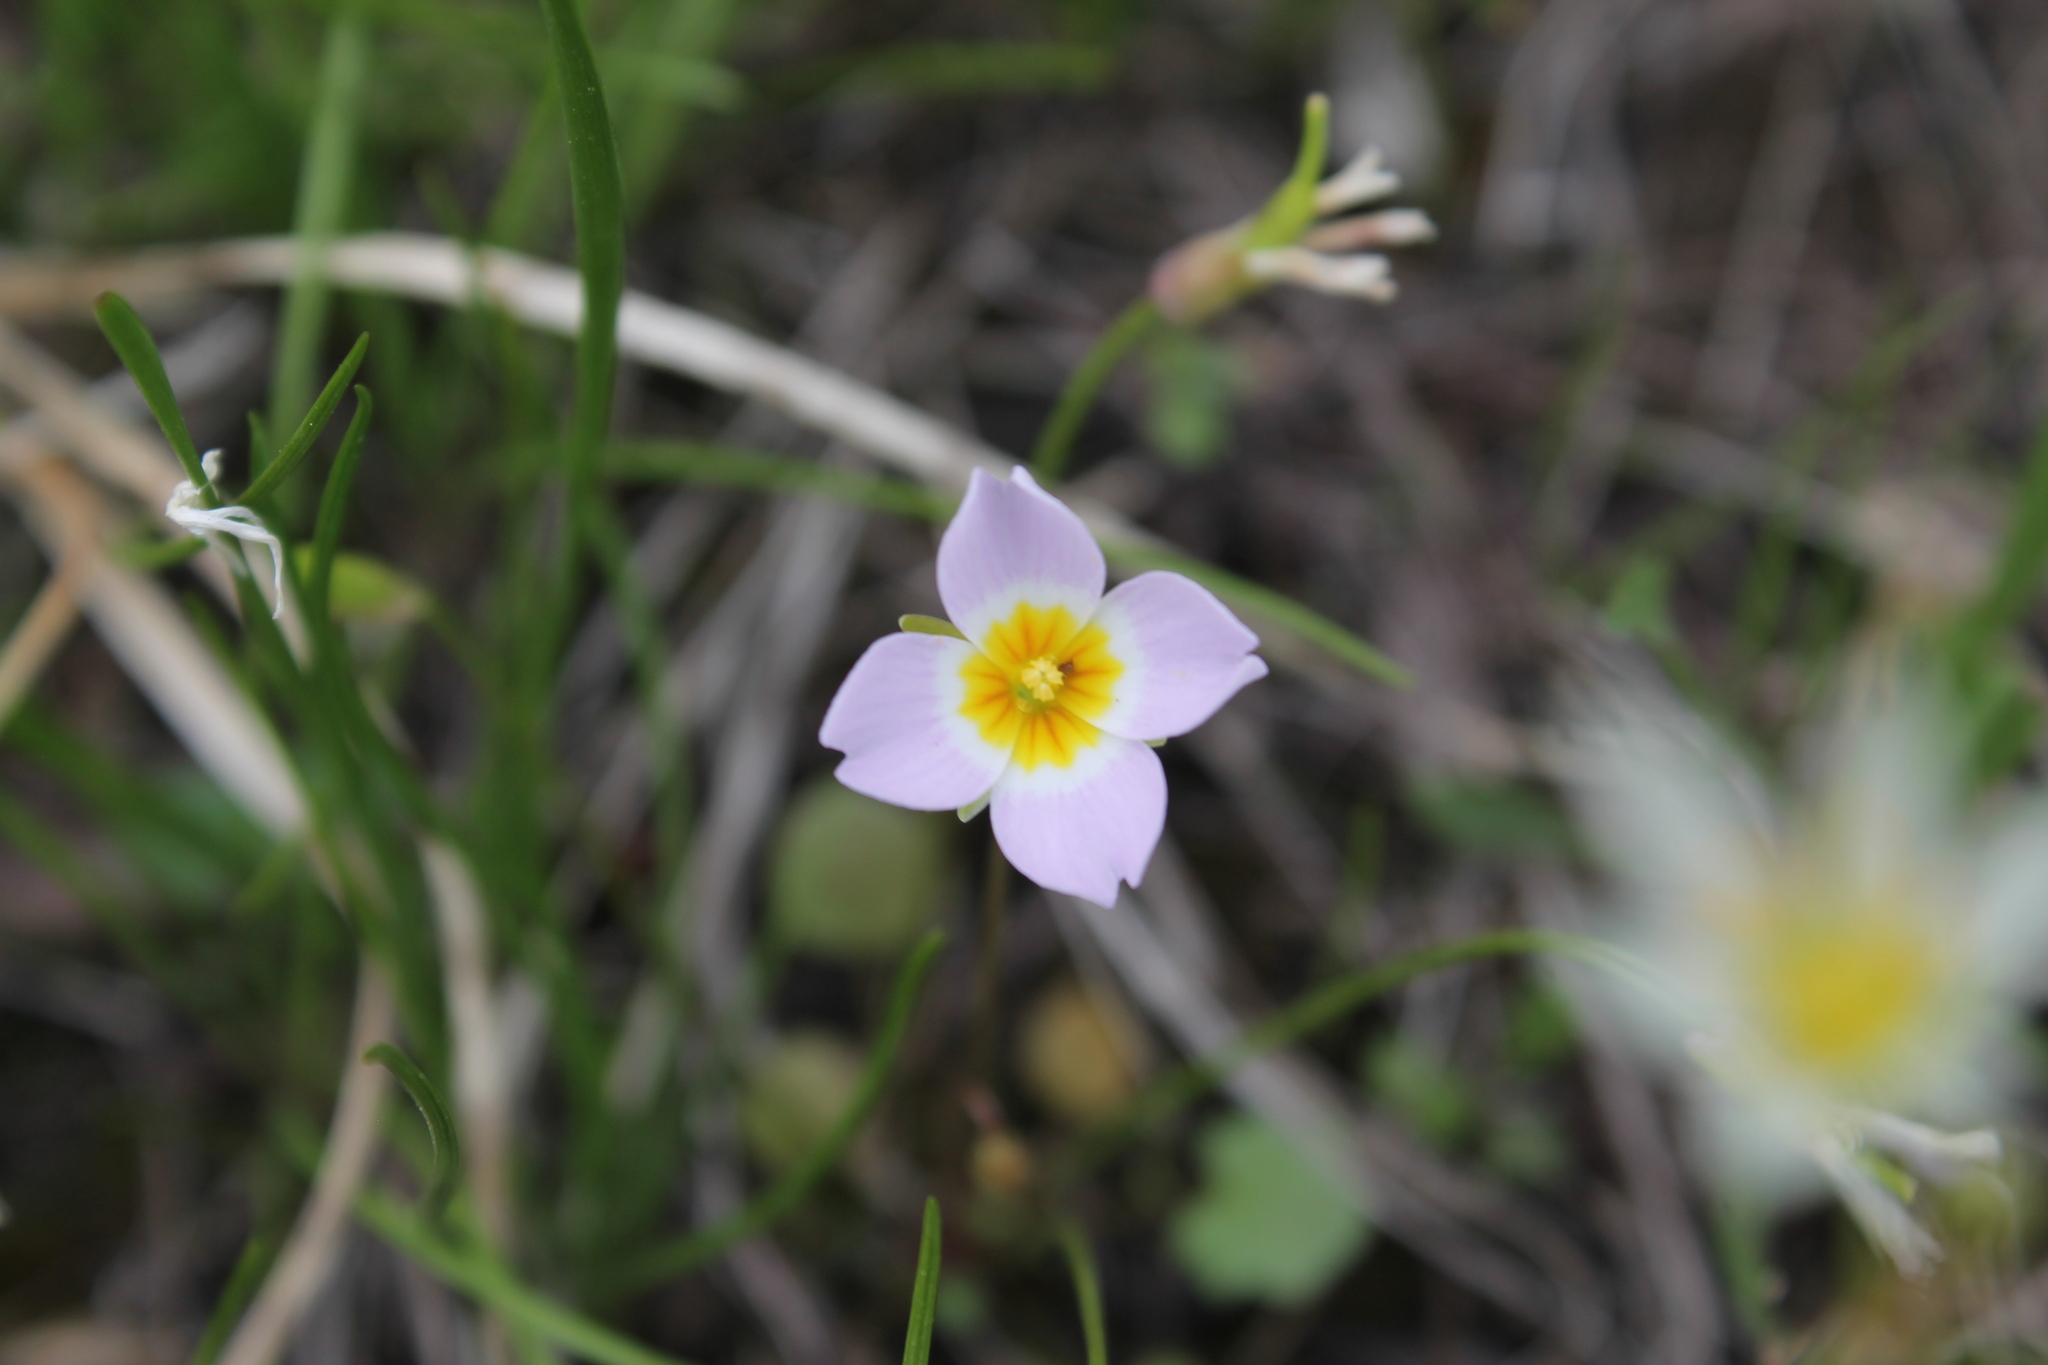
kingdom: Plantae
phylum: Tracheophyta
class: Magnoliopsida
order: Brassicales
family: Brassicaceae
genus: Leavenworthia
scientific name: Leavenworthia stylosa
